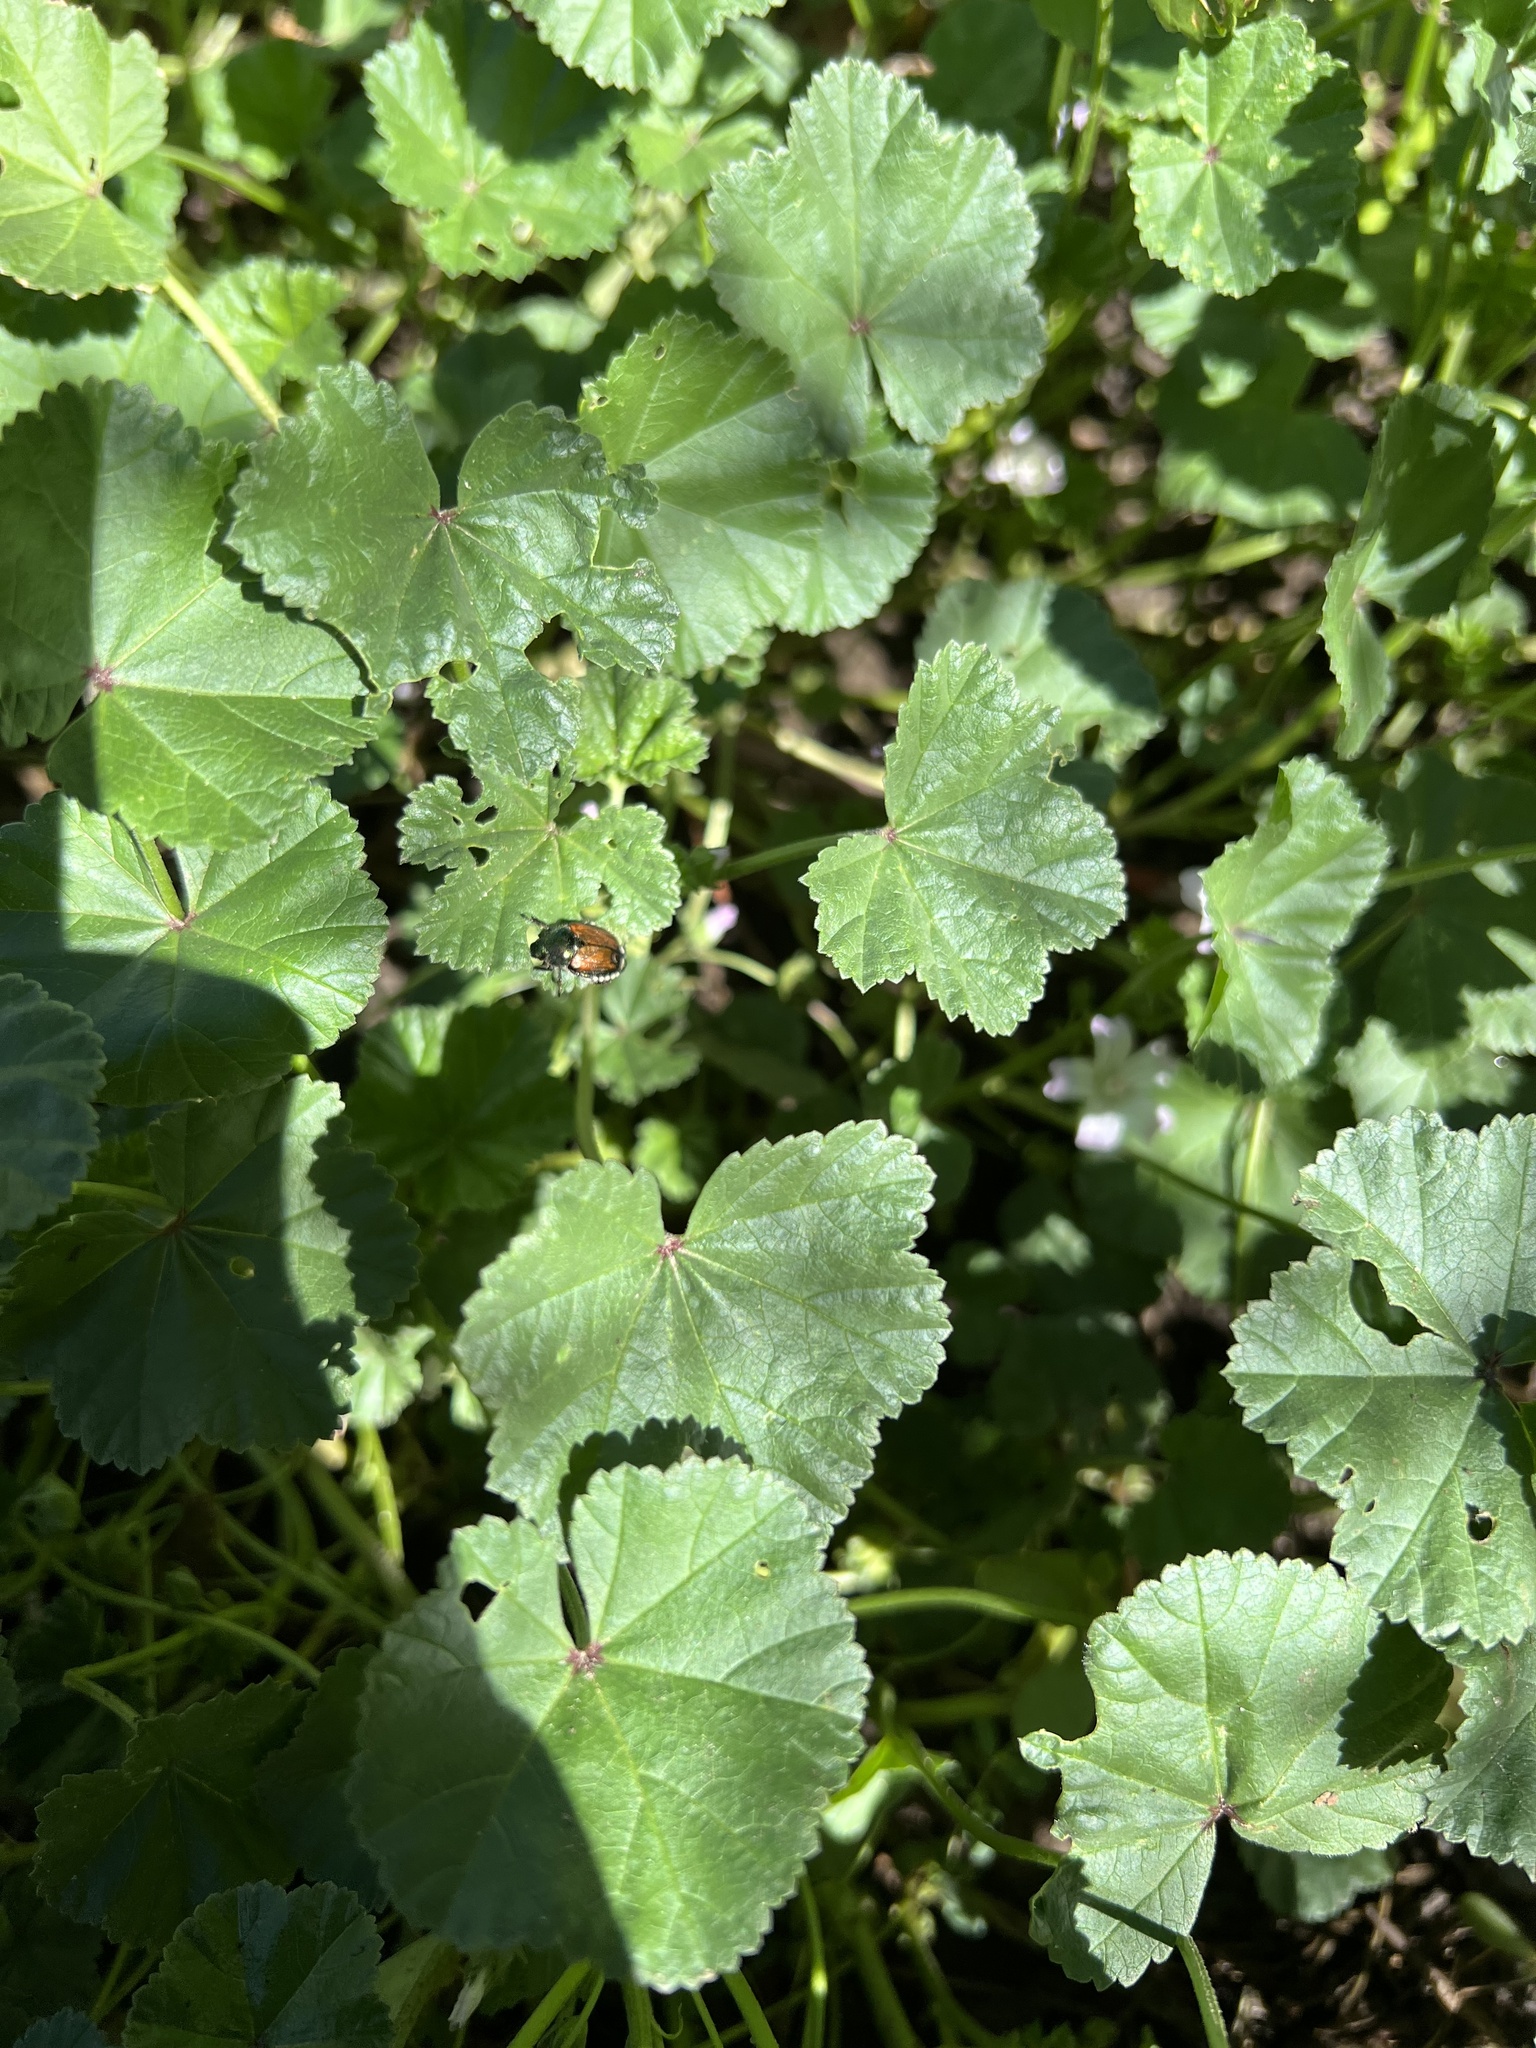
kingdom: Animalia
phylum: Arthropoda
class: Insecta
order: Coleoptera
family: Scarabaeidae
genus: Popillia
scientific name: Popillia japonica
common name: Japanese beetle
